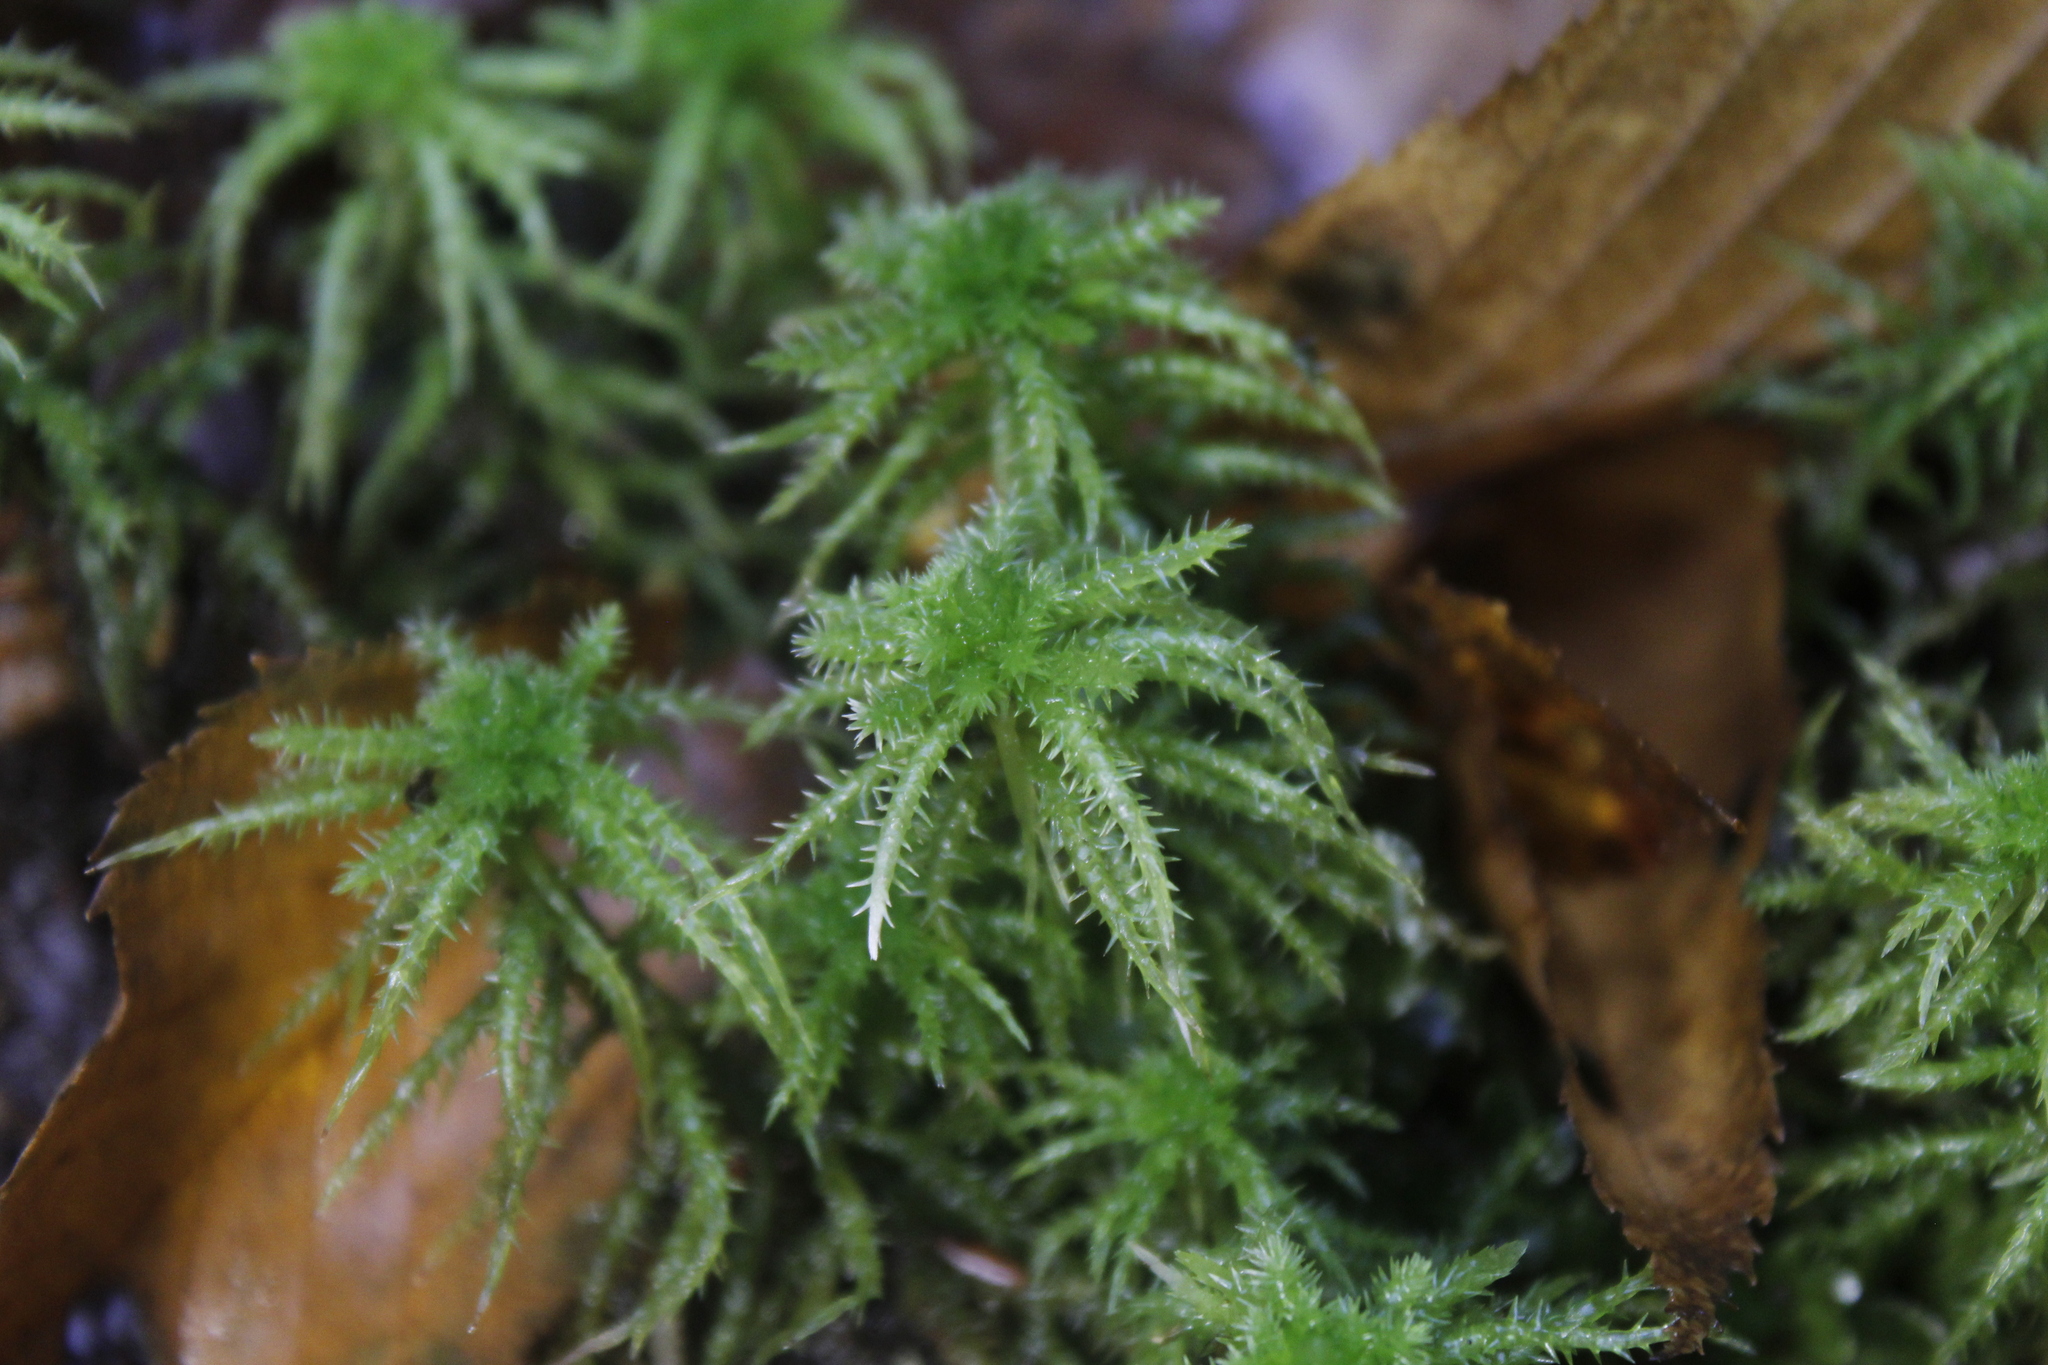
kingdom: Plantae
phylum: Bryophyta
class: Sphagnopsida
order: Sphagnales
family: Sphagnaceae
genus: Sphagnum
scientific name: Sphagnum squarrosum
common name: Shaggy peat moss
